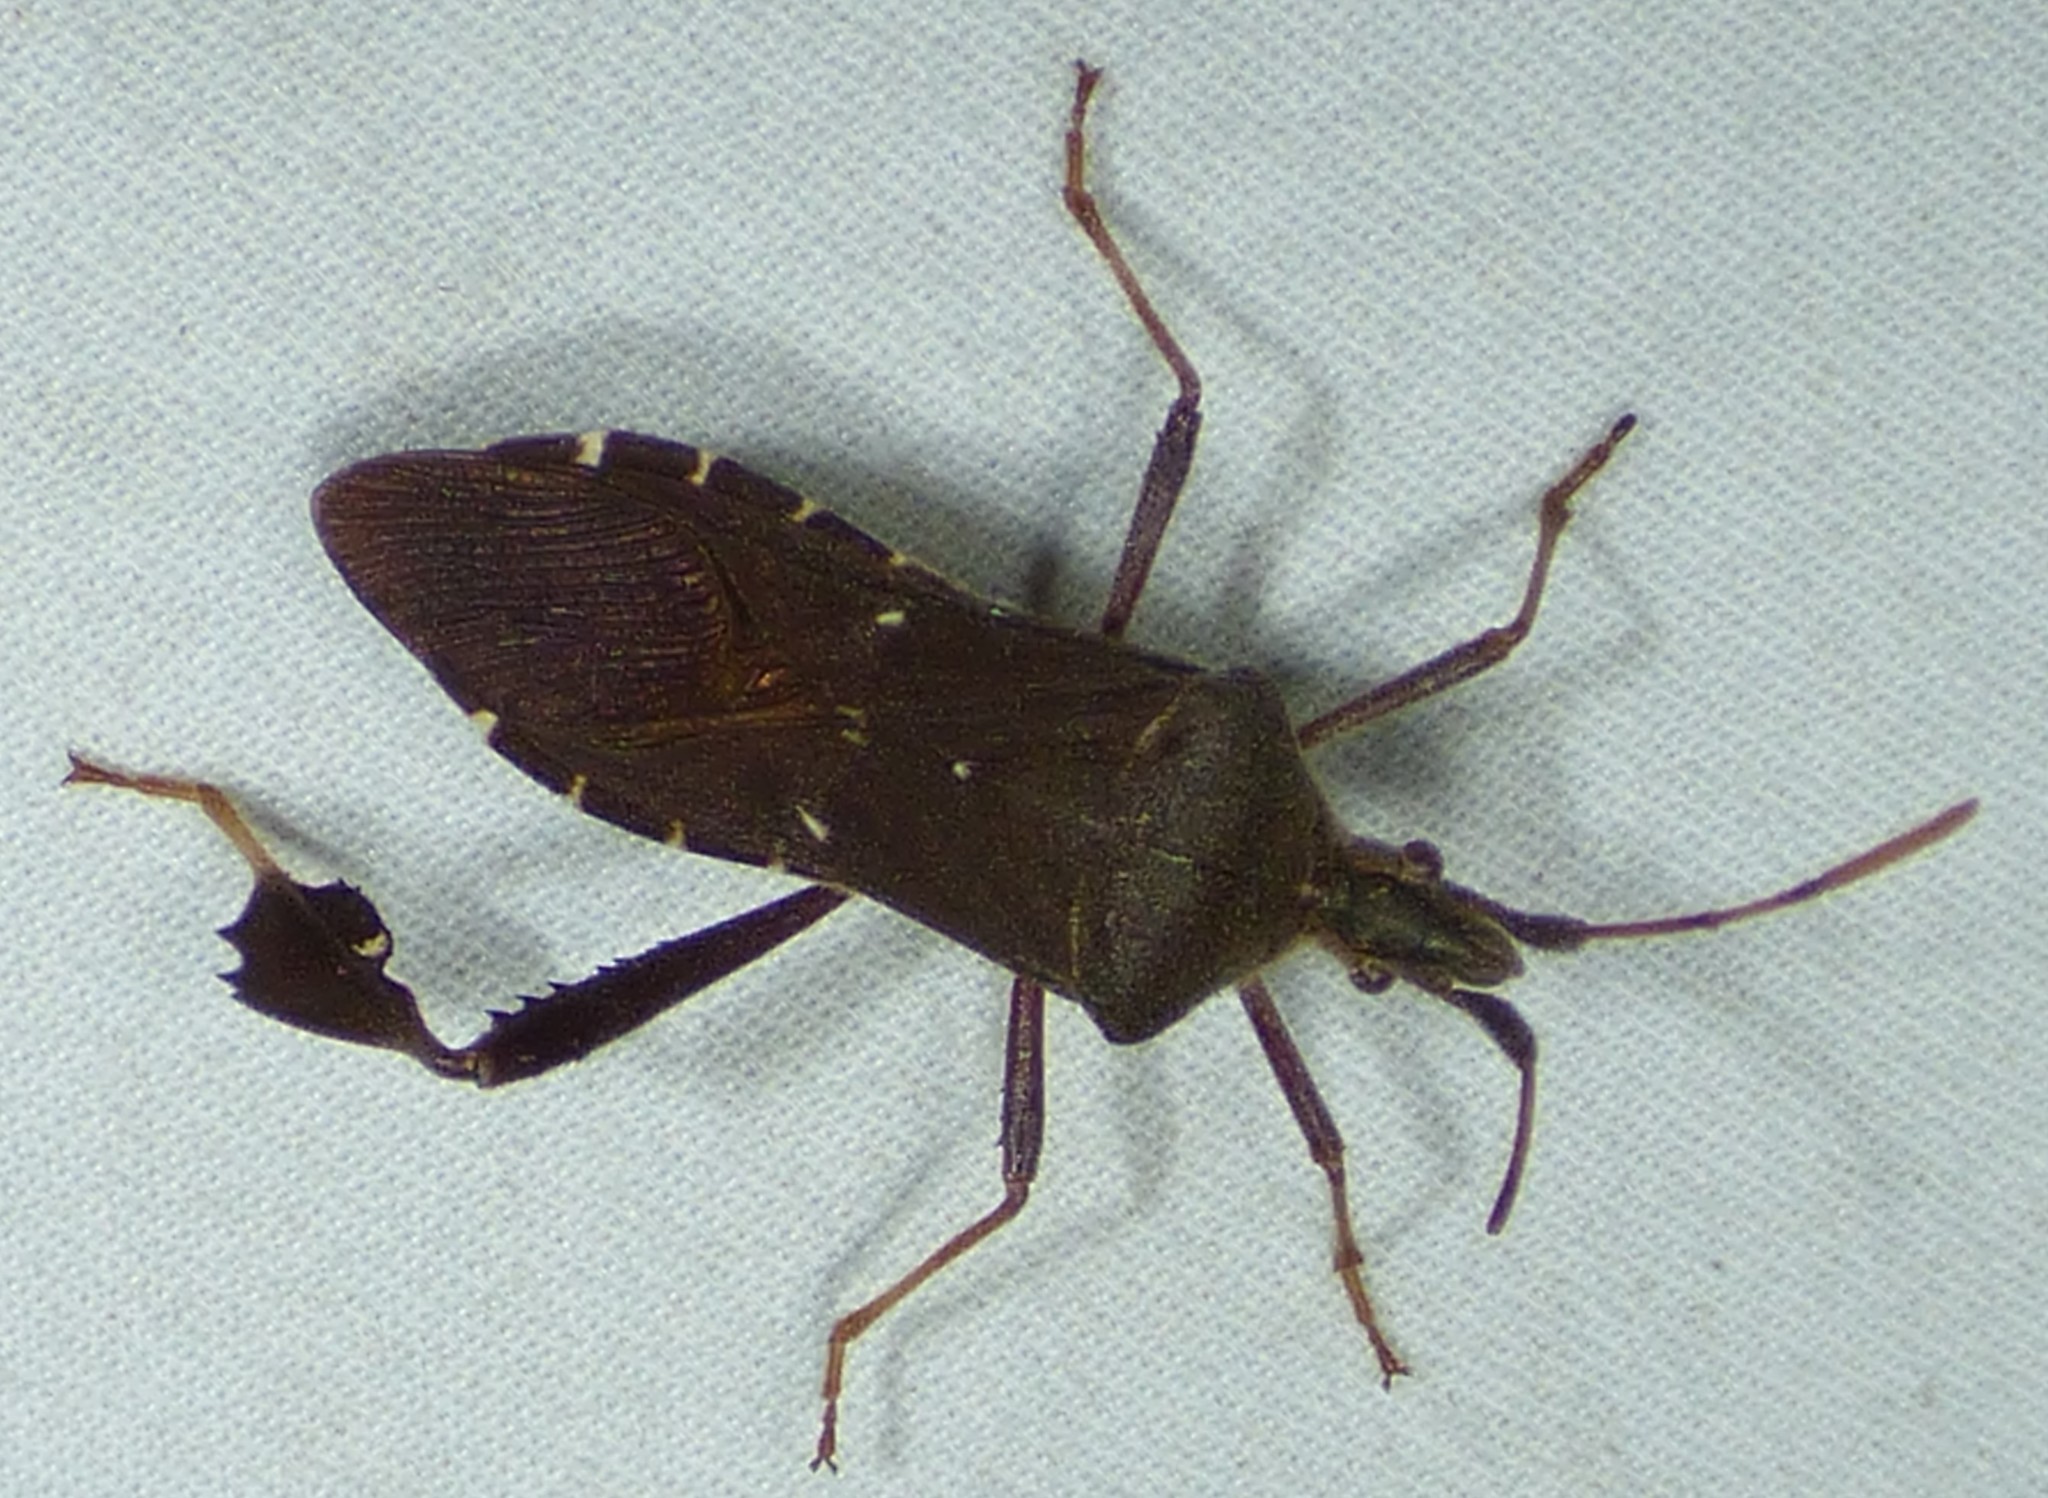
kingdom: Animalia
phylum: Arthropoda
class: Insecta
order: Hemiptera
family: Coreidae
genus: Leptoglossus
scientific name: Leptoglossus oppositus
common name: Northern leaf-footed bug
